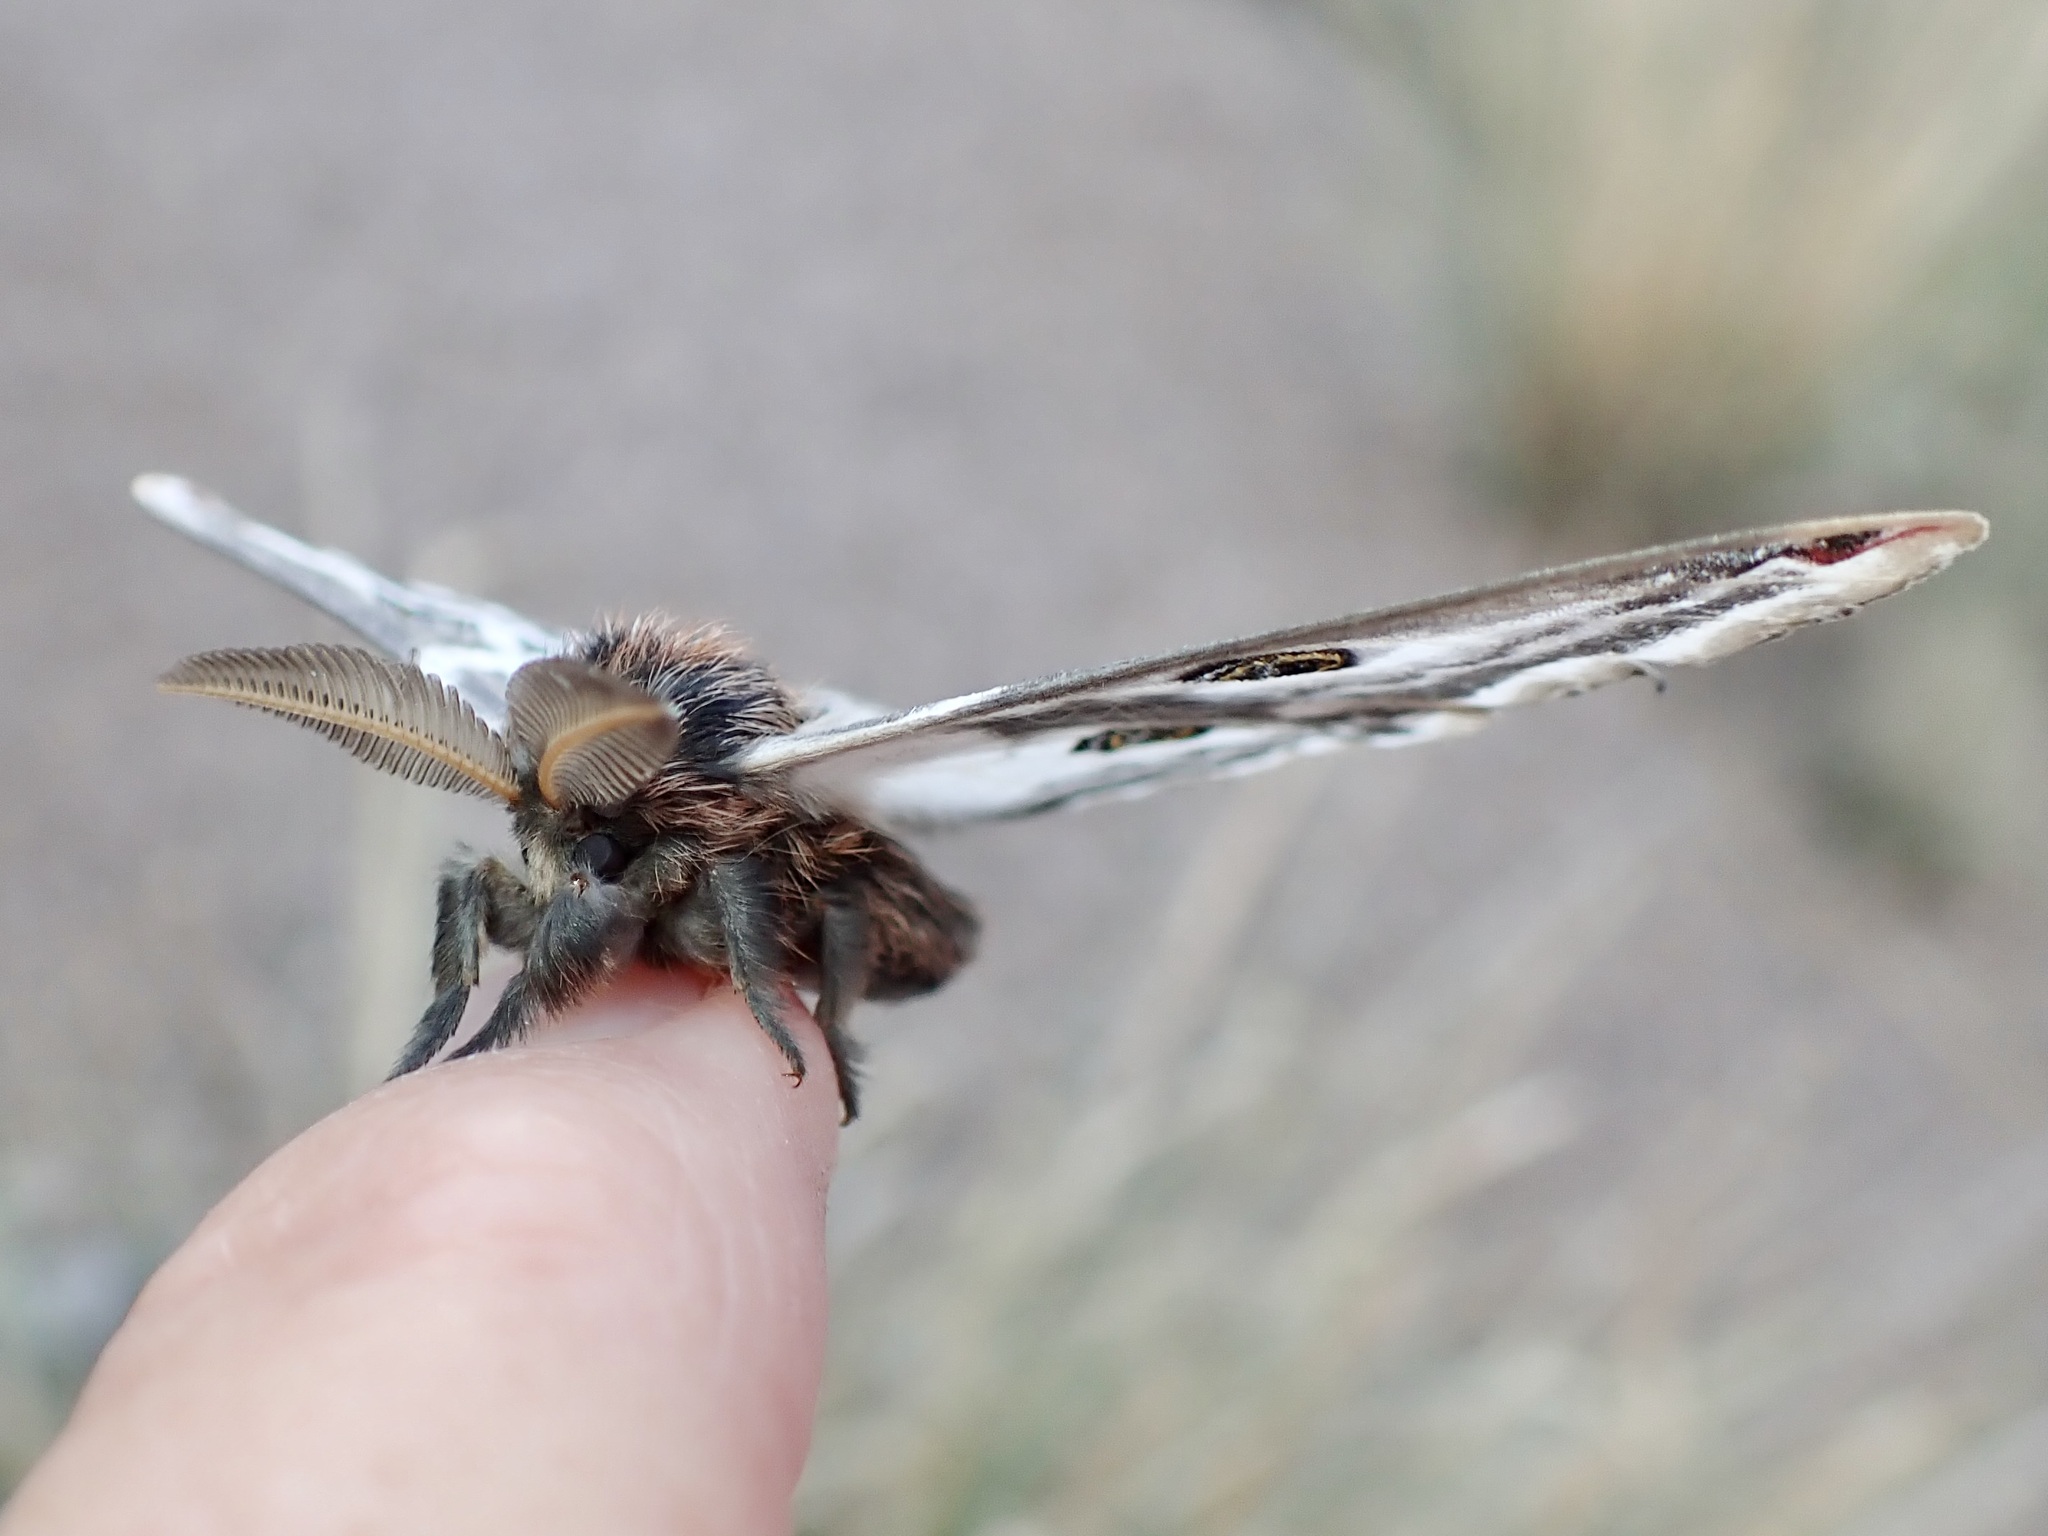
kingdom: Animalia
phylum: Arthropoda
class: Insecta
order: Lepidoptera
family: Saturniidae
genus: Saturnia
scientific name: Saturnia anona
